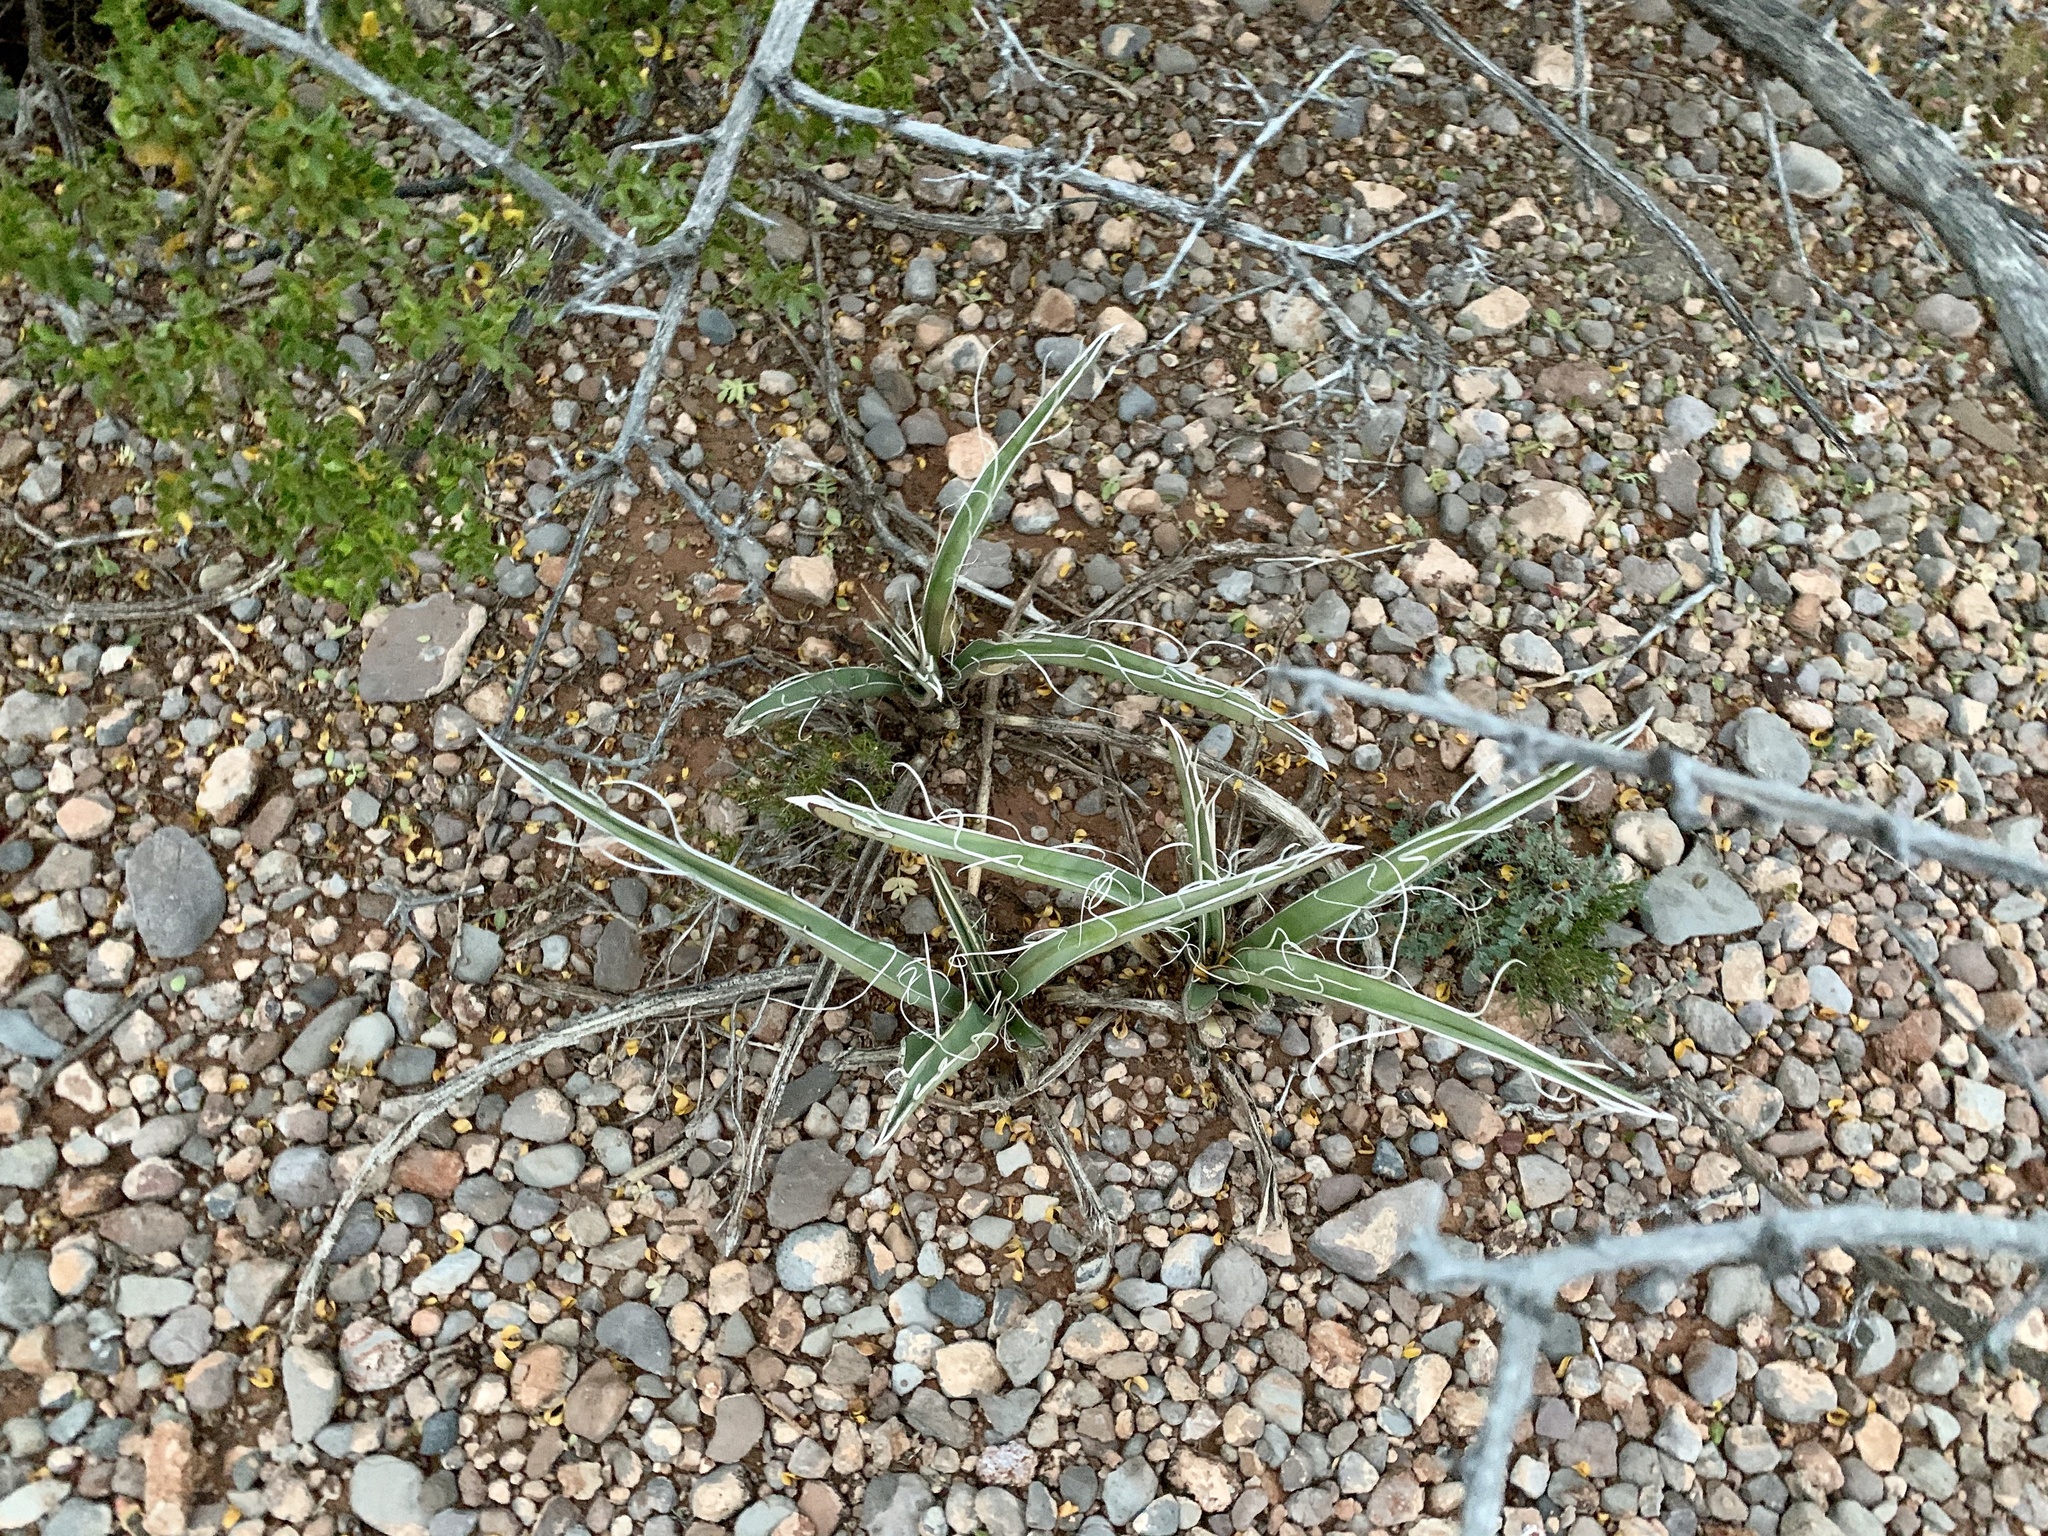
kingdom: Plantae
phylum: Tracheophyta
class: Liliopsida
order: Asparagales
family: Asparagaceae
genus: Yucca
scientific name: Yucca baccata
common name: Banana yucca
